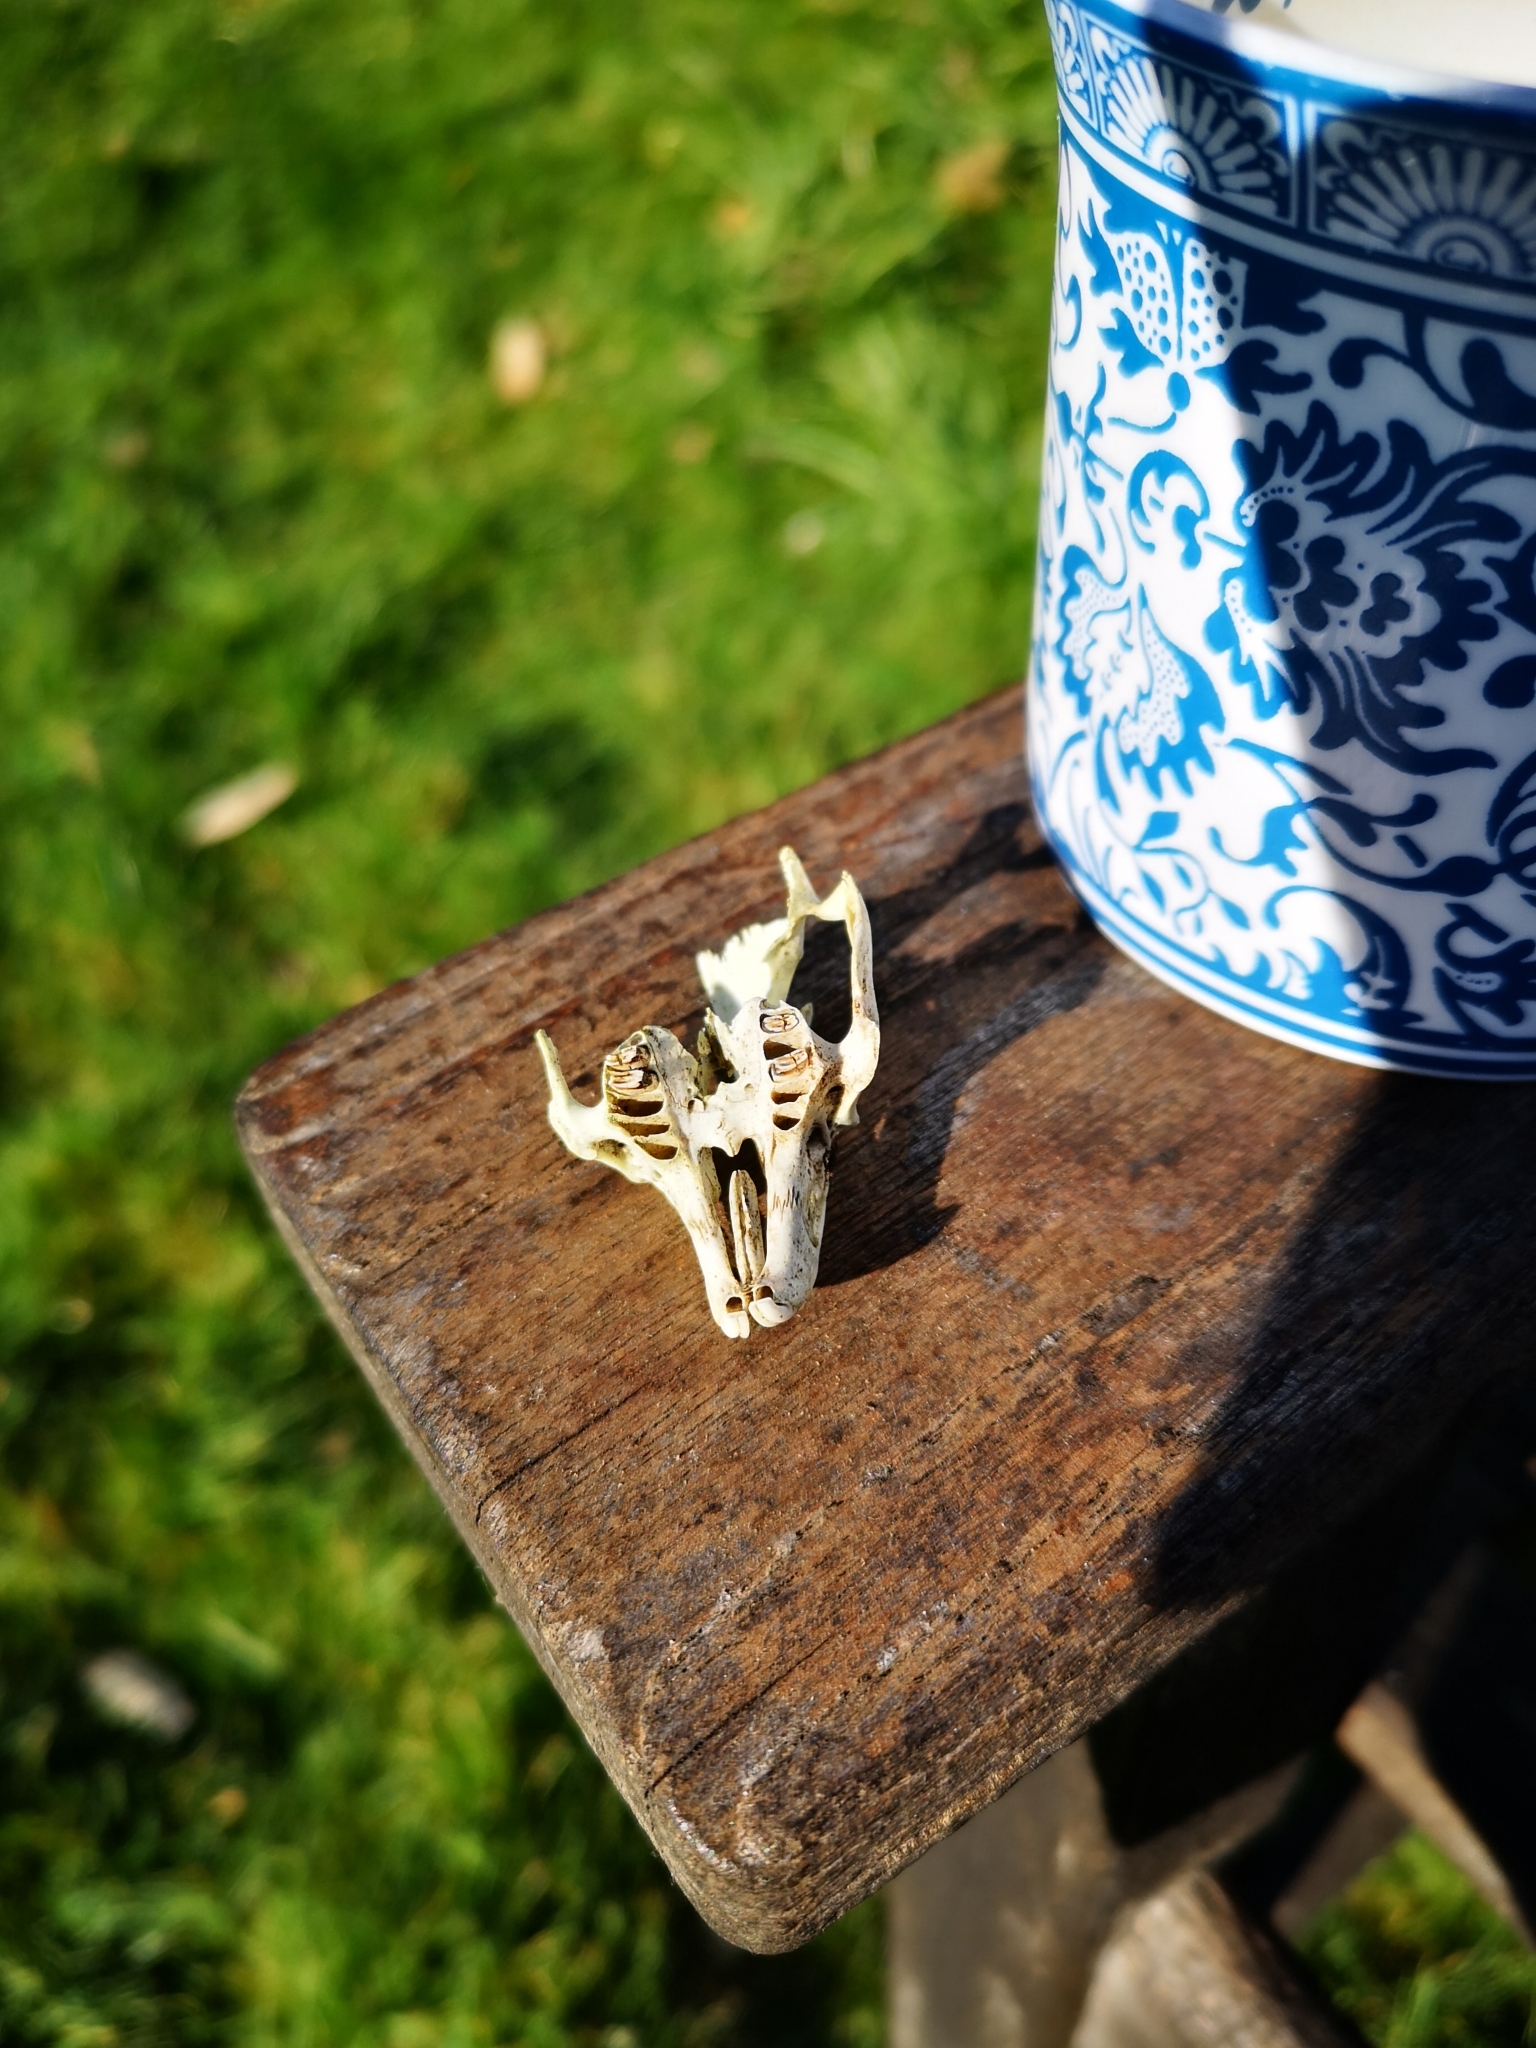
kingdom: Animalia
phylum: Chordata
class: Mammalia
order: Lagomorpha
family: Leporidae
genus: Oryctolagus
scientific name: Oryctolagus cuniculus
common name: European rabbit
